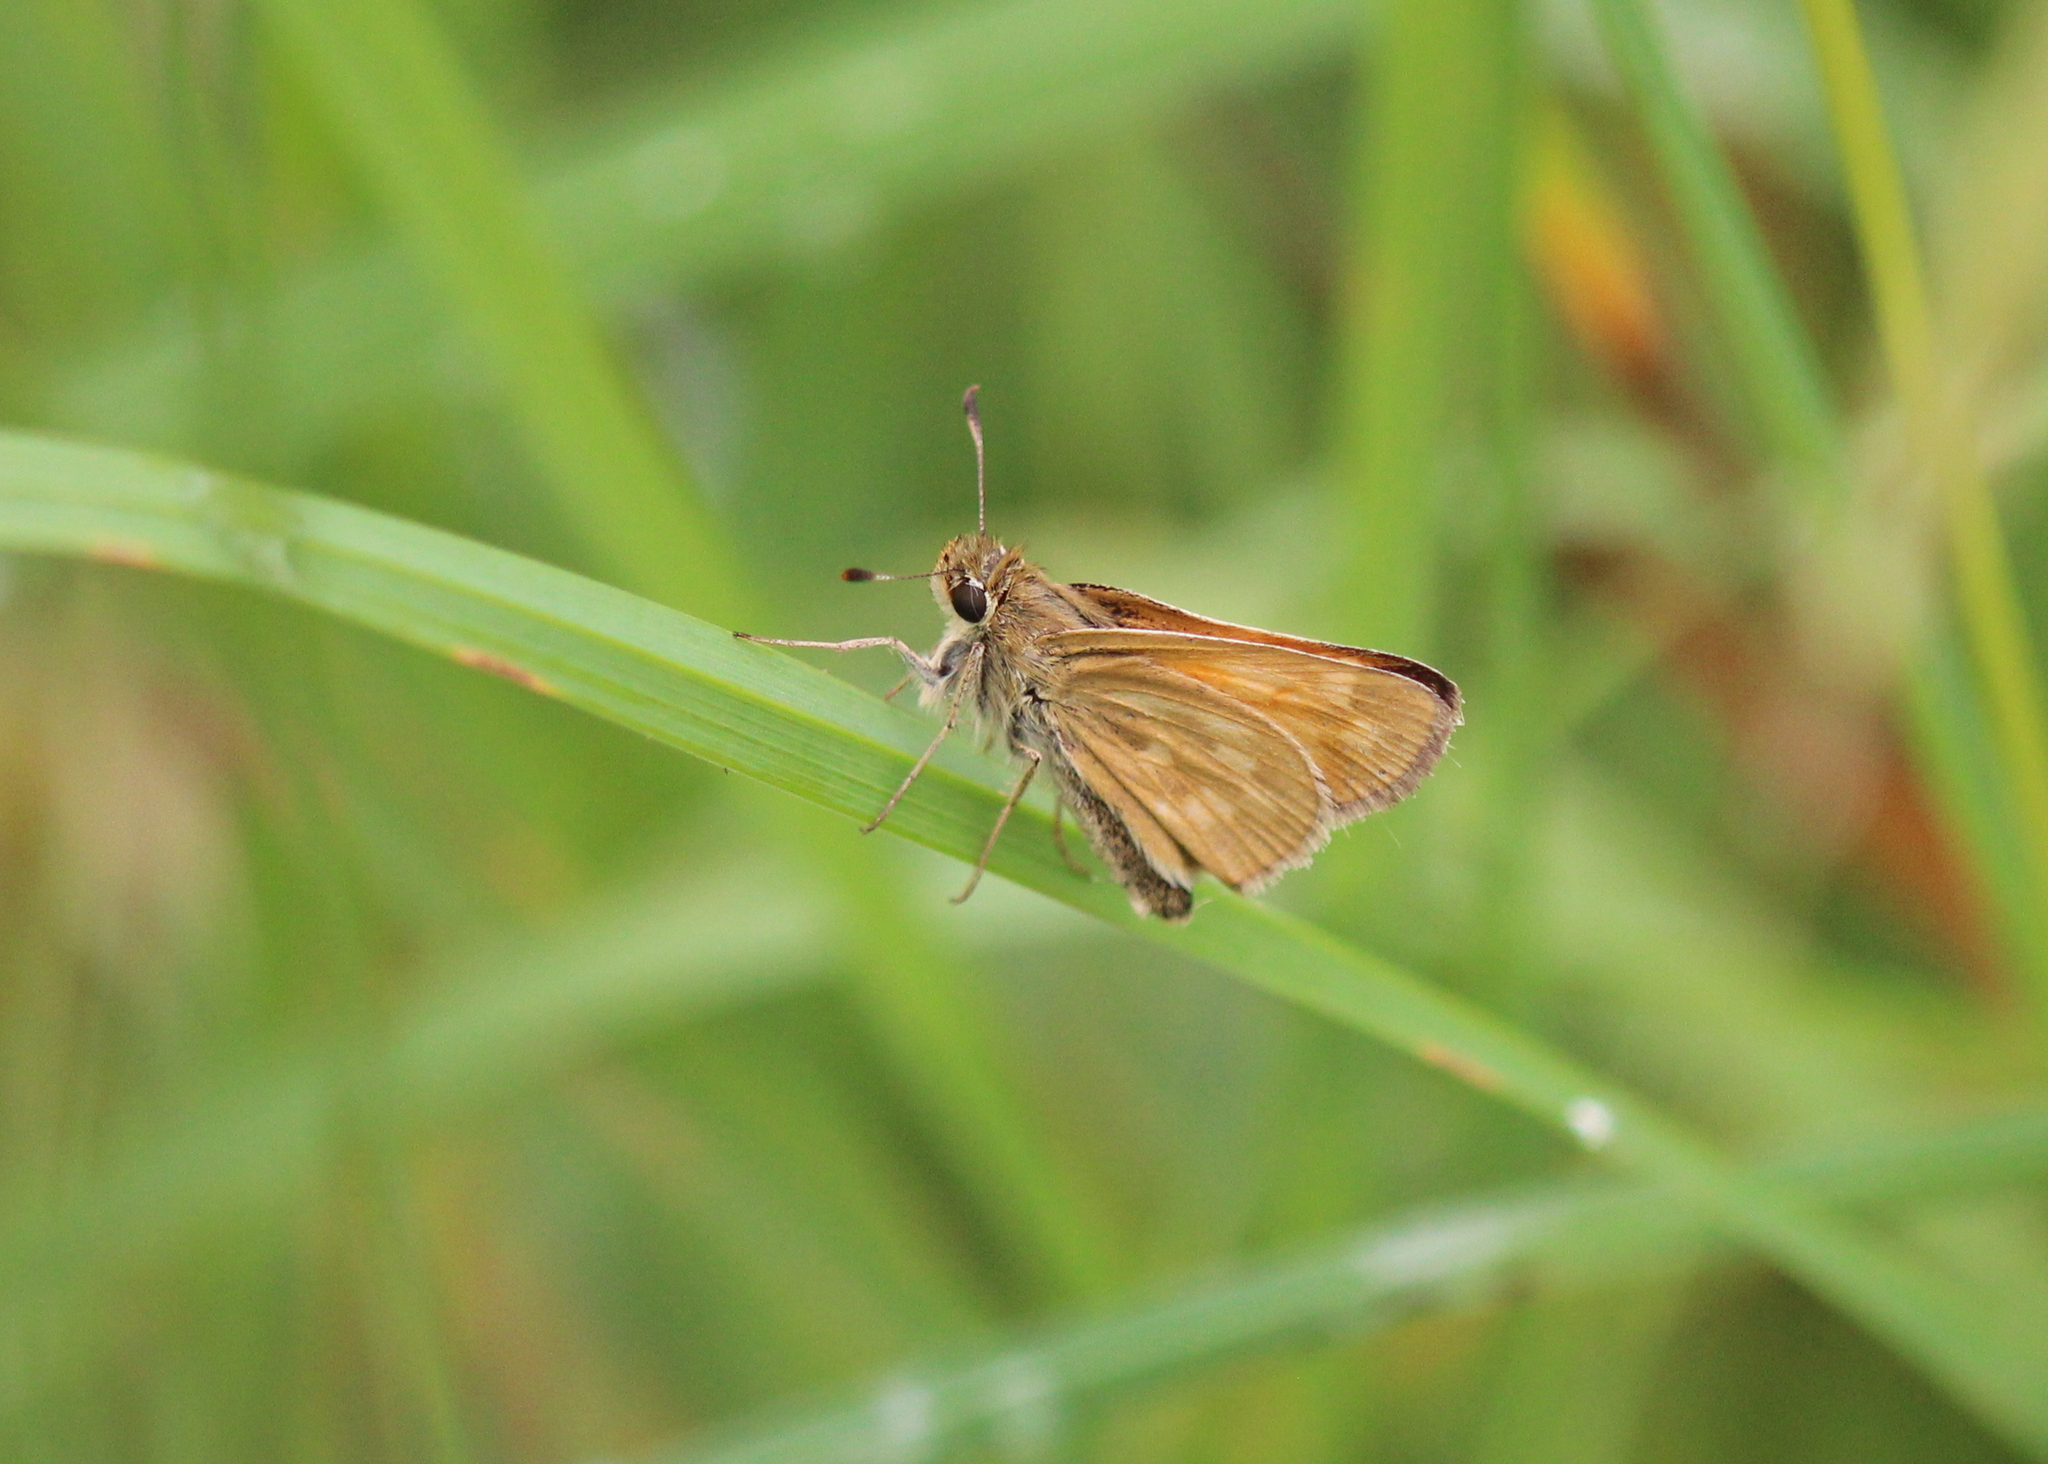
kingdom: Animalia
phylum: Arthropoda
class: Insecta
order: Lepidoptera
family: Hesperiidae
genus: Hesperia
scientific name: Hesperia sassacus
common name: Indian skipper
